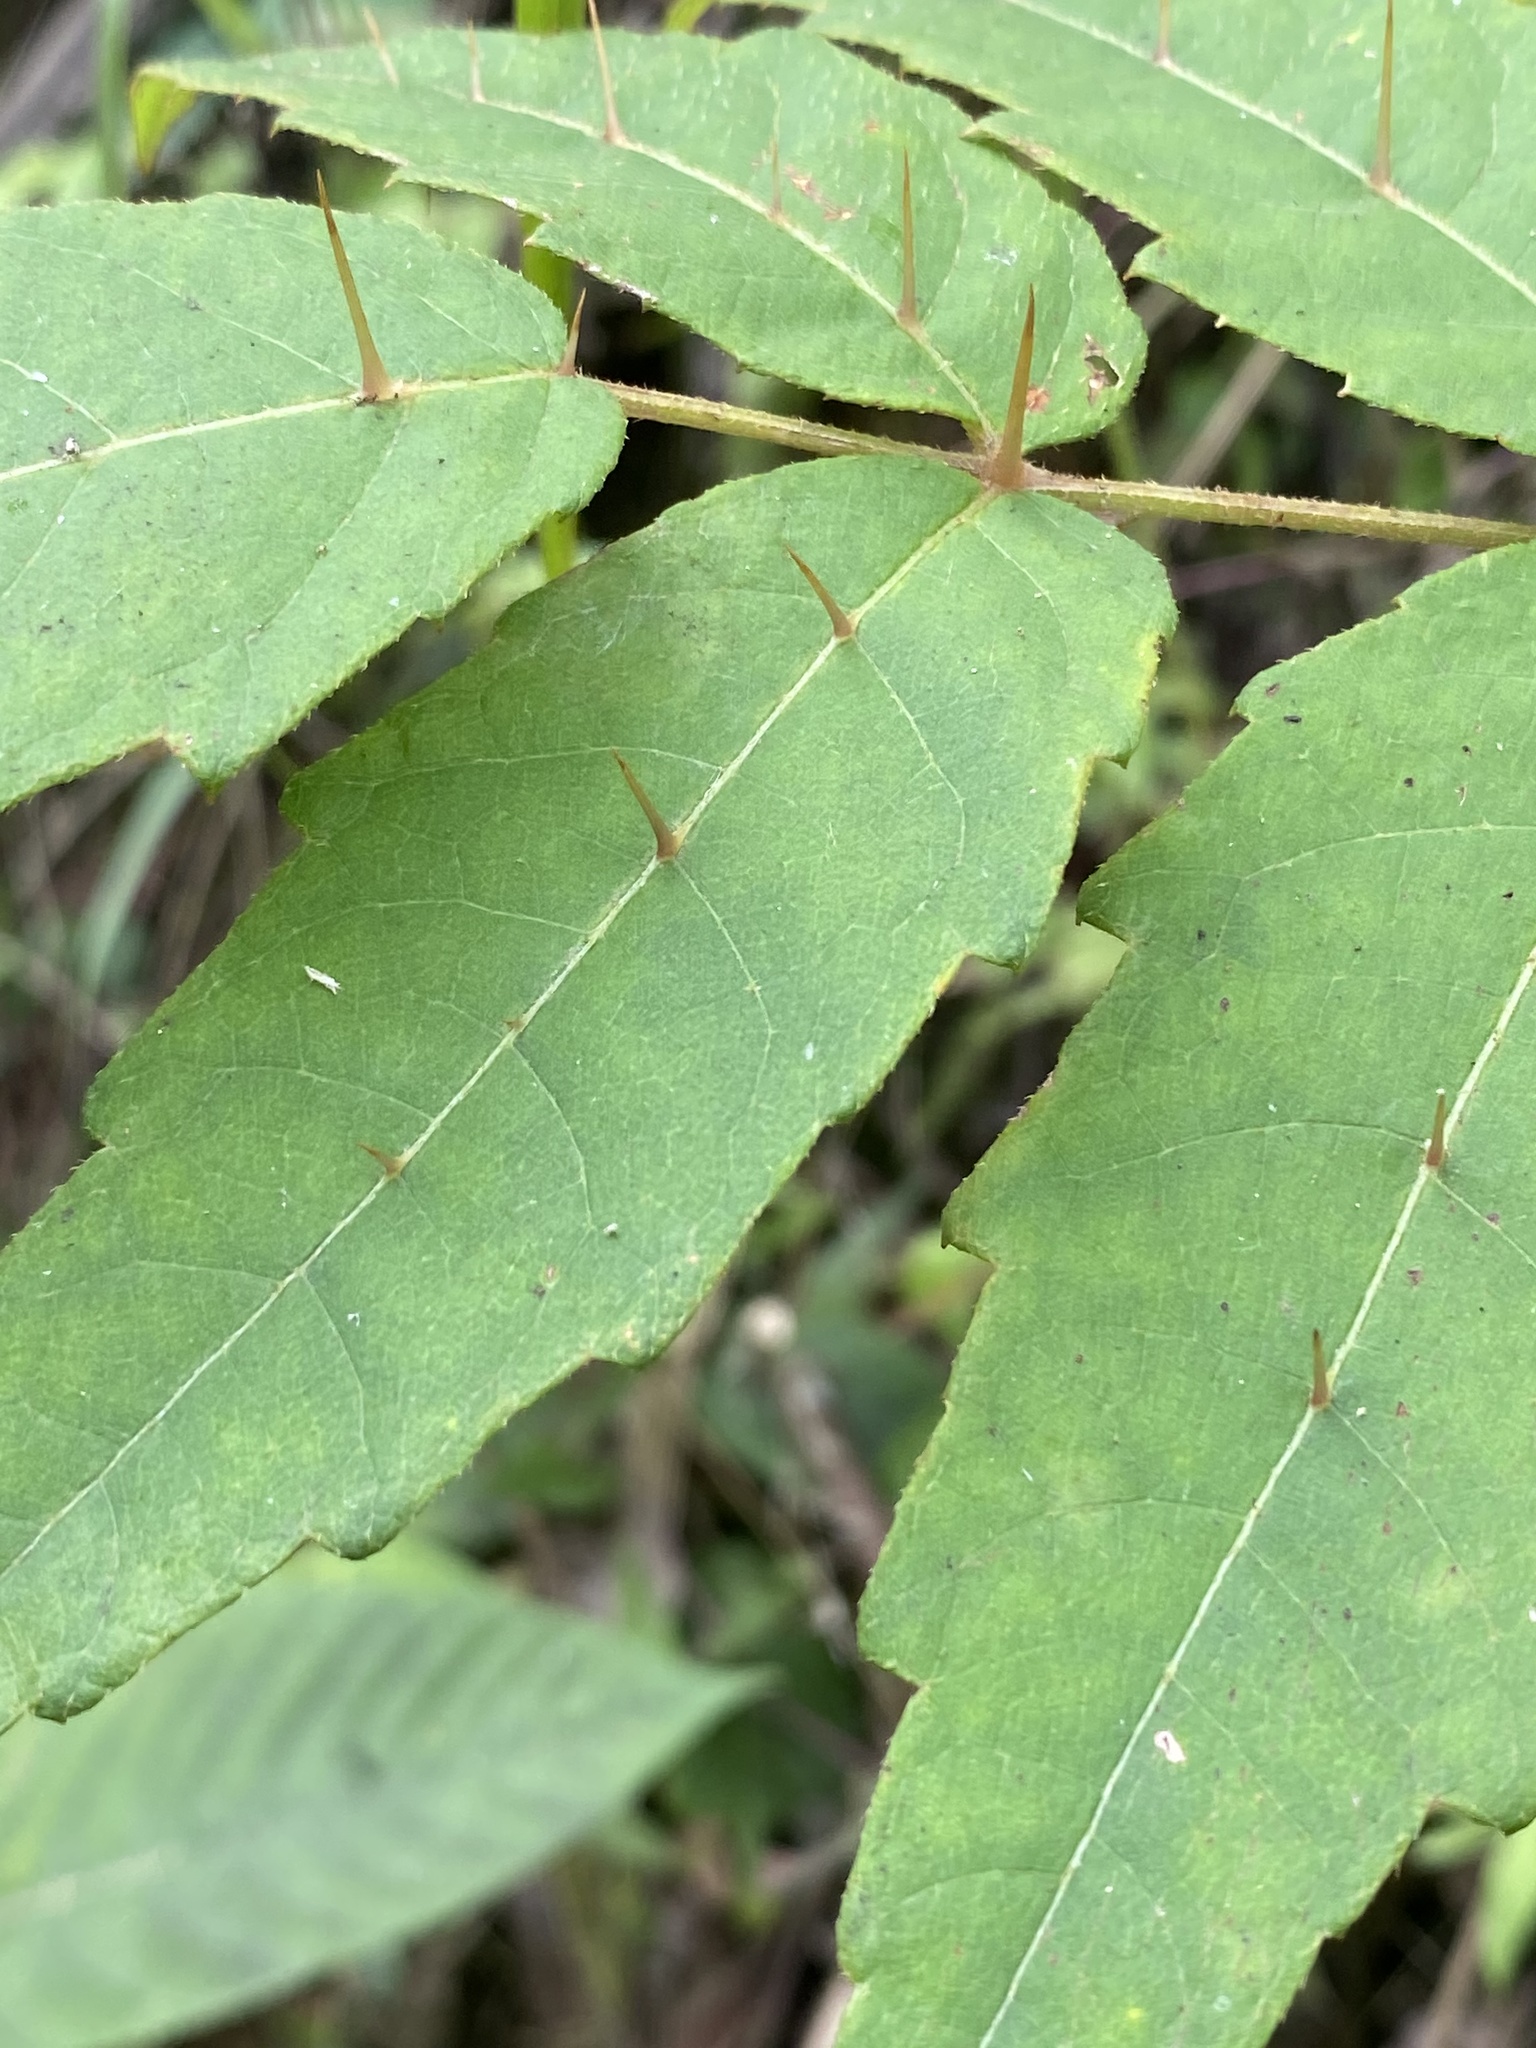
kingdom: Plantae
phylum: Tracheophyta
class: Magnoliopsida
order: Apiales
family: Araliaceae
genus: Aralia
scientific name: Aralia decaisneana
